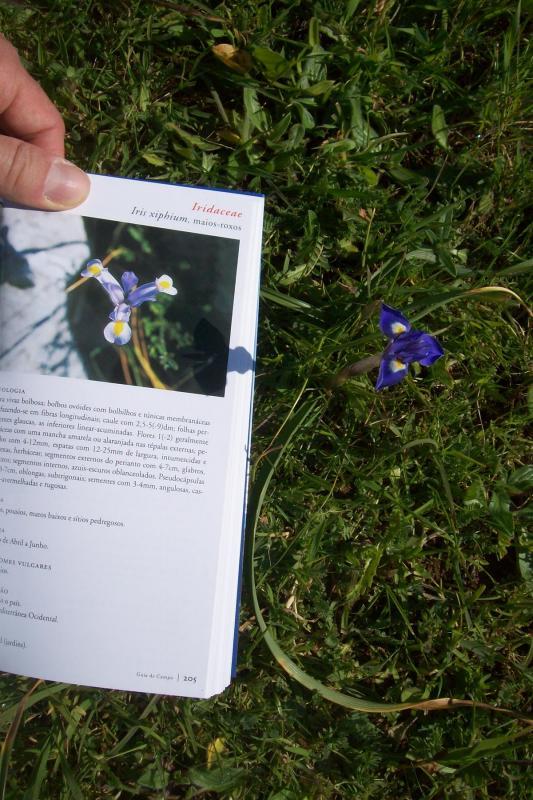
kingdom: Plantae
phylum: Tracheophyta
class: Liliopsida
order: Asparagales
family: Iridaceae
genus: Moraea
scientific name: Moraea sisyrinchium
